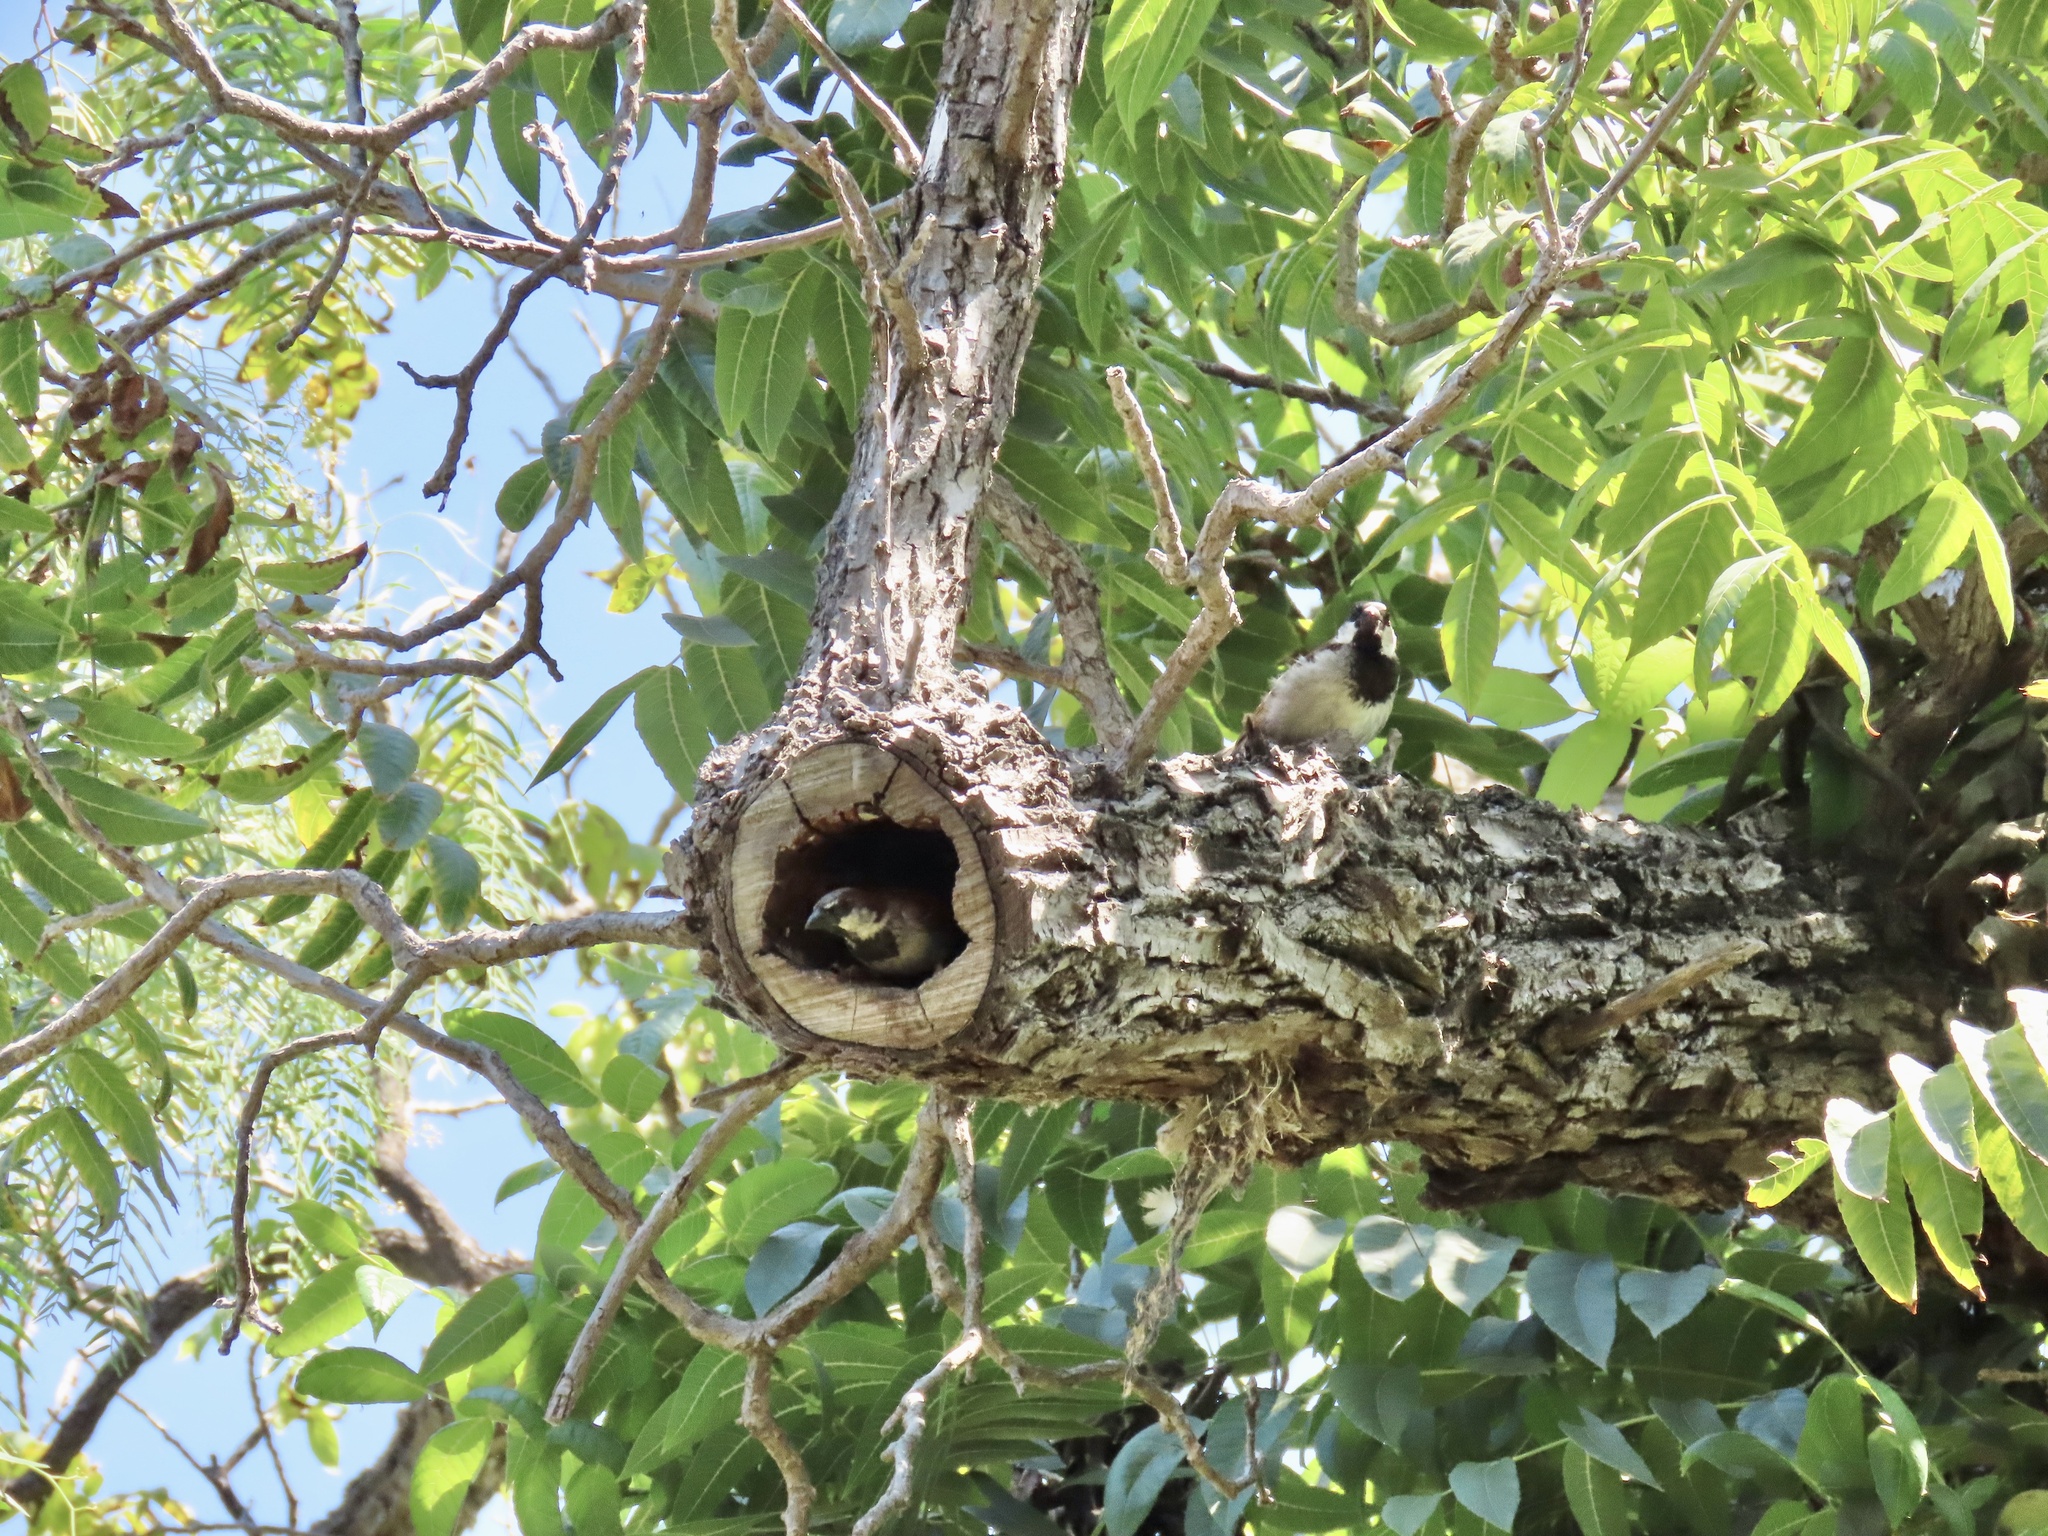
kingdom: Animalia
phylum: Chordata
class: Aves
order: Passeriformes
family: Passeridae
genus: Passer
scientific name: Passer domesticus
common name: House sparrow
